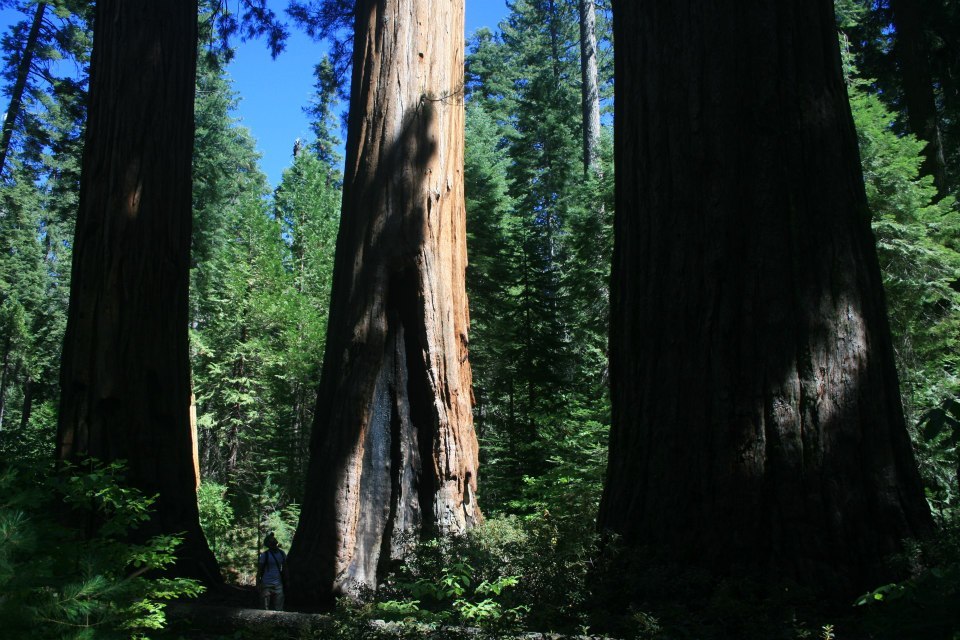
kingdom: Plantae
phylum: Tracheophyta
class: Pinopsida
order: Pinales
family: Cupressaceae
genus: Sequoiadendron
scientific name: Sequoiadendron giganteum
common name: Wellingtonia
